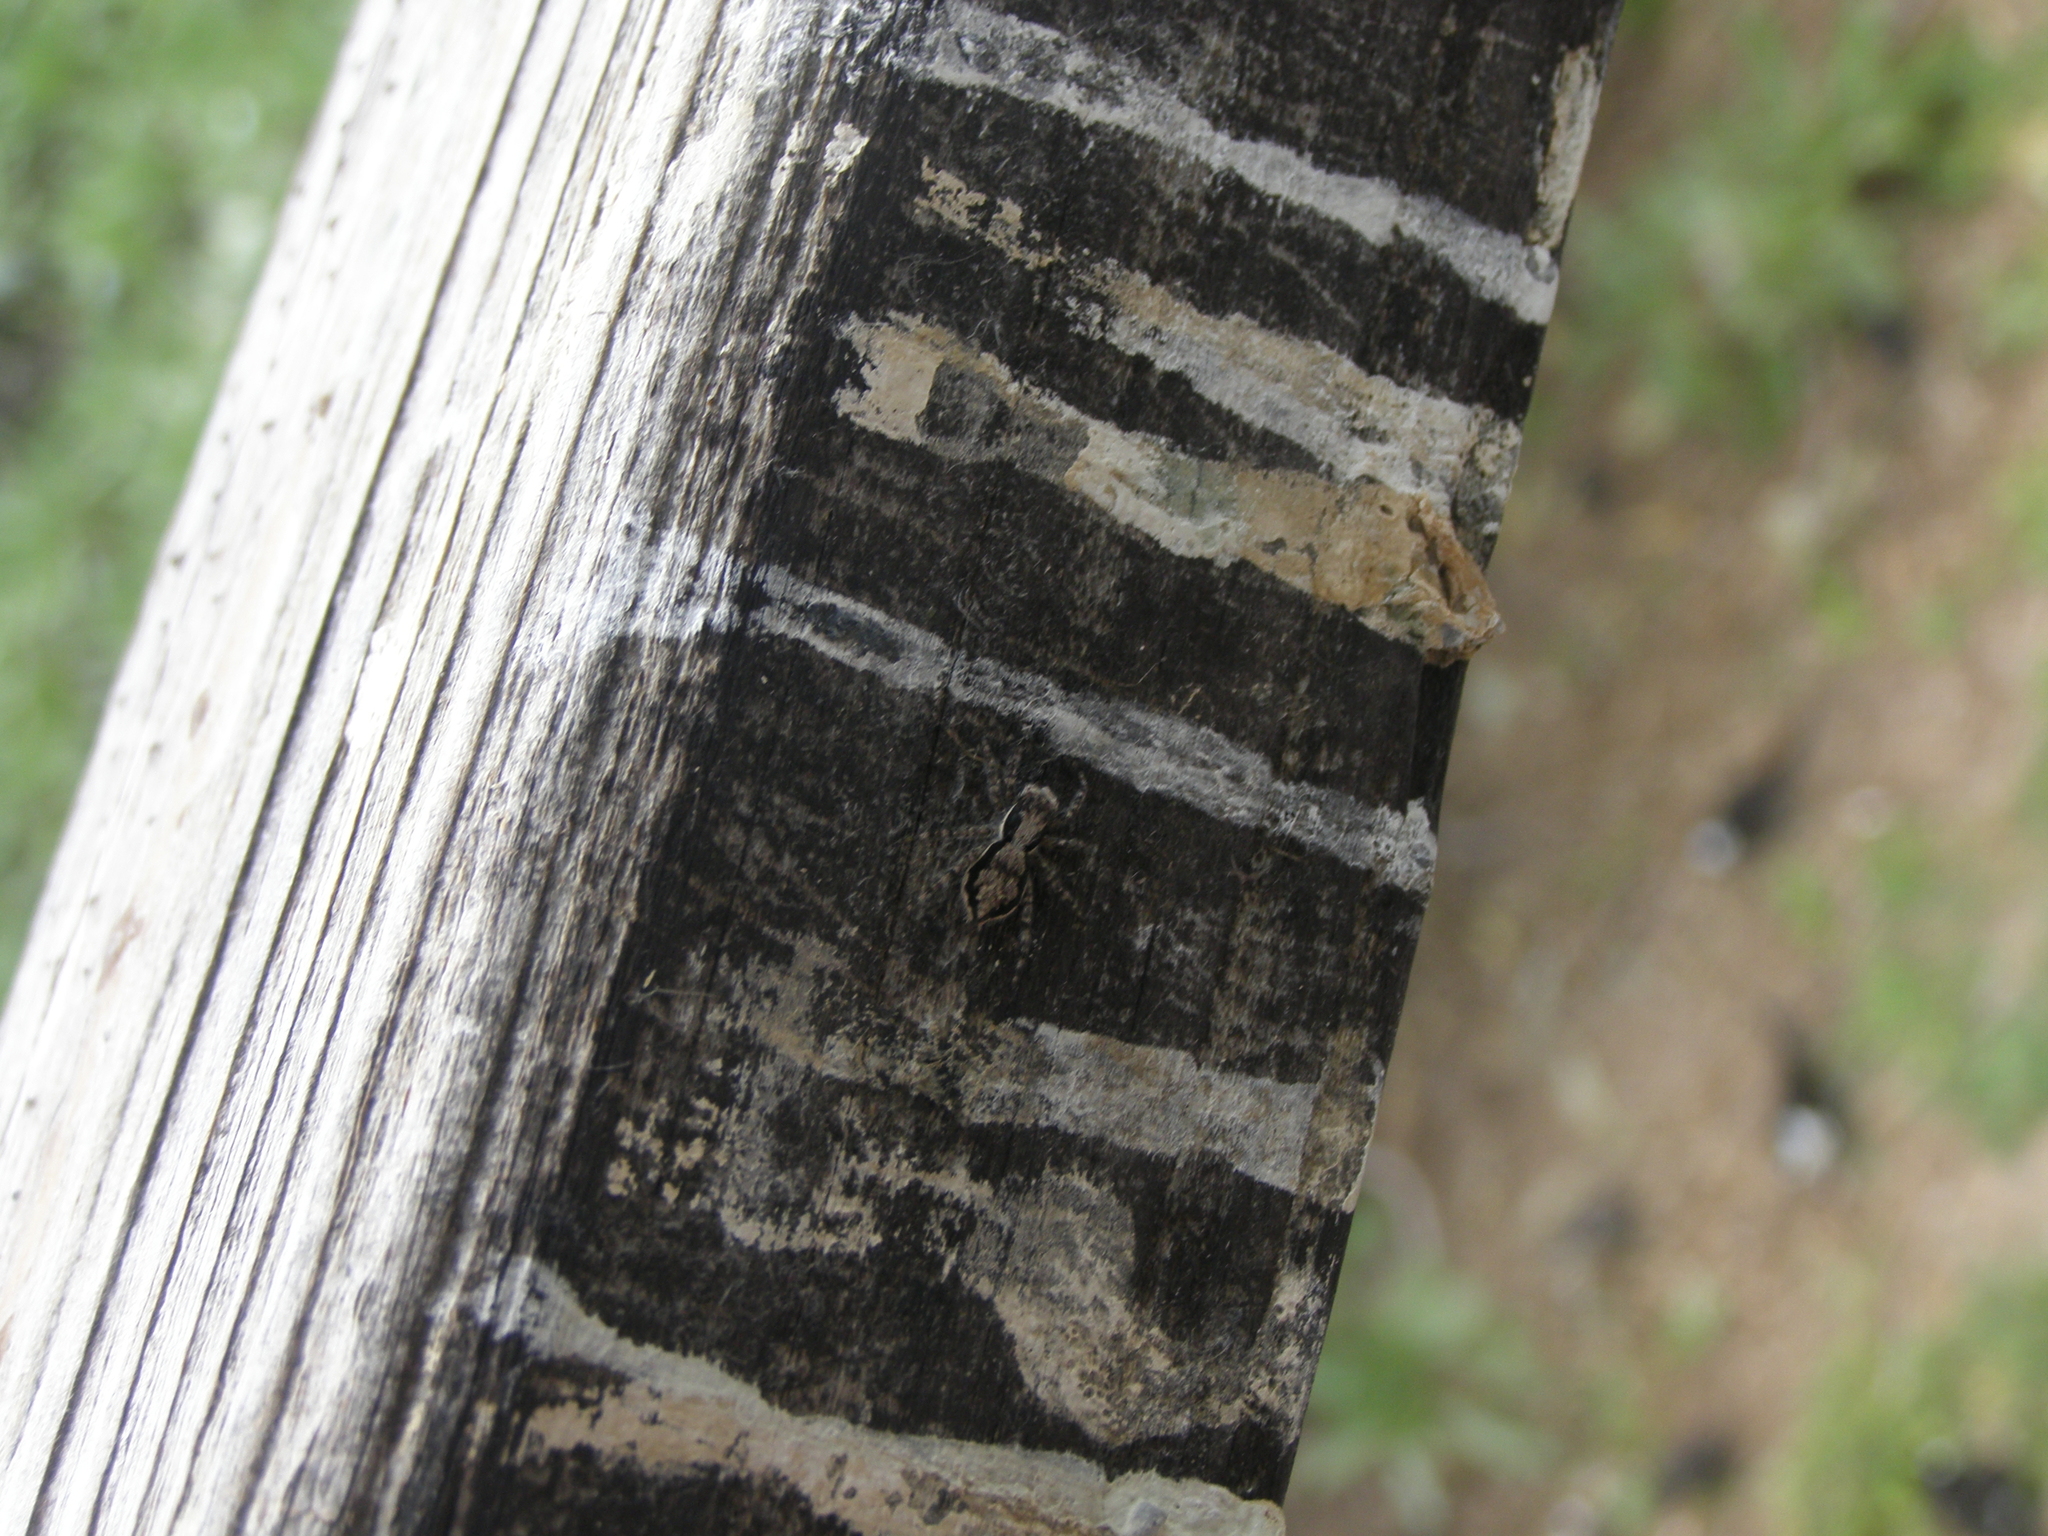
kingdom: Animalia
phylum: Arthropoda
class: Arachnida
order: Araneae
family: Salticidae
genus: Menemerus
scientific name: Menemerus bivittatus
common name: Gray wall jumper
